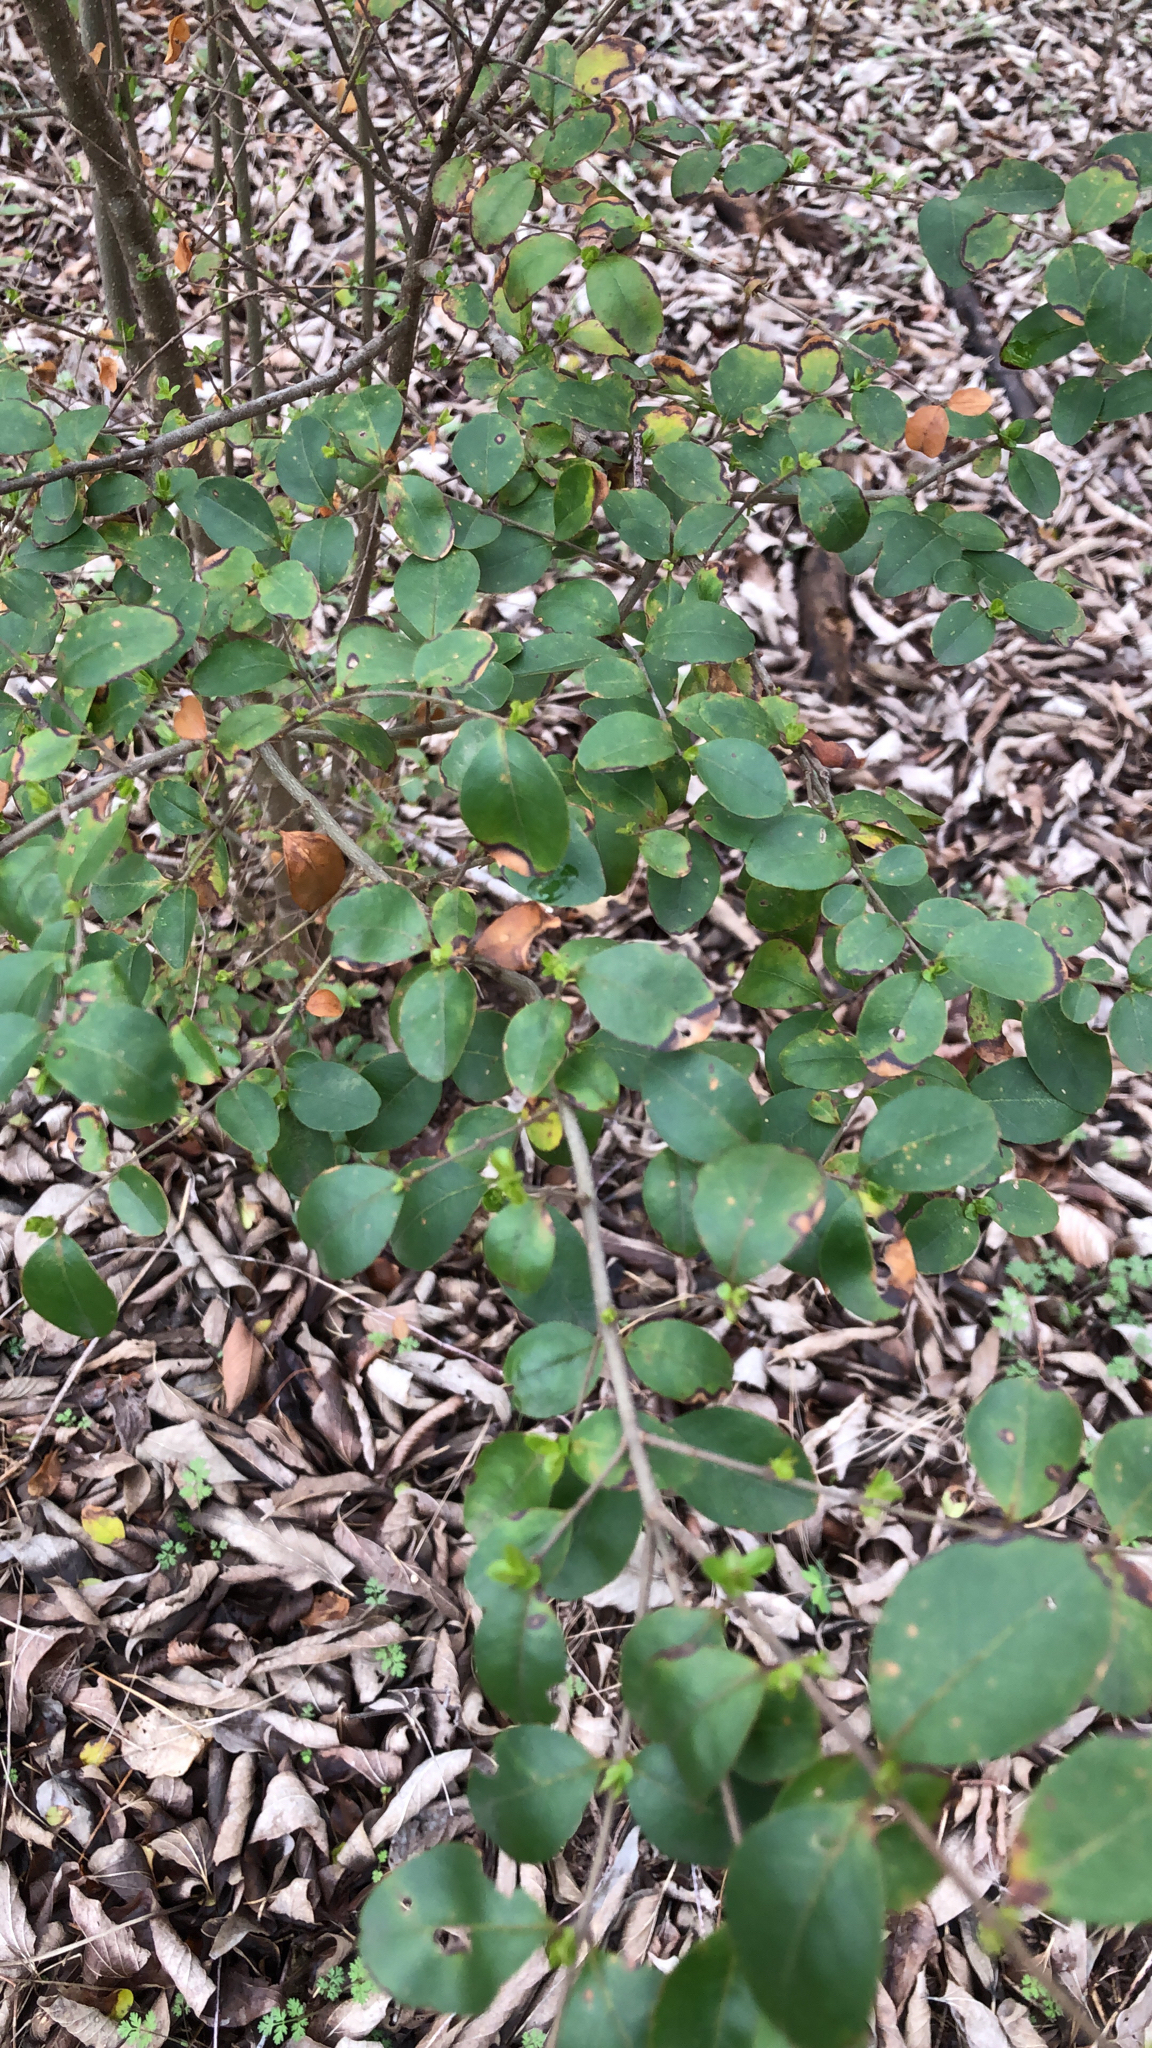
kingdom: Plantae
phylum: Tracheophyta
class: Magnoliopsida
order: Lamiales
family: Oleaceae
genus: Ligustrum
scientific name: Ligustrum sinense
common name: Chinese privet
